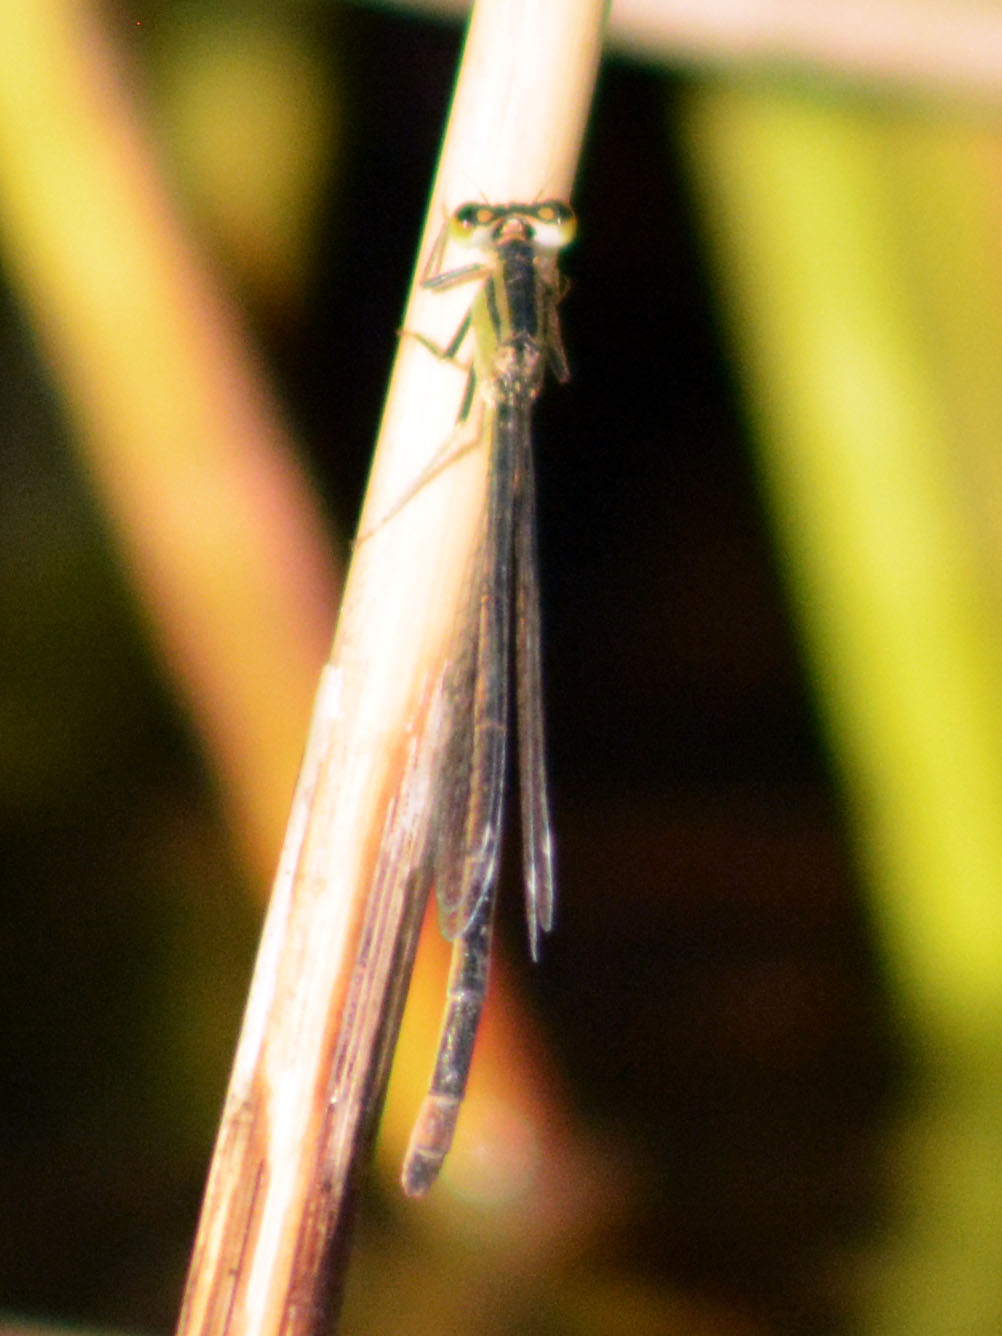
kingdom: Animalia
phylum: Arthropoda
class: Insecta
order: Odonata
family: Coenagrionidae
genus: Ischnura
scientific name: Ischnura elegans
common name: Blue-tailed damselfly
